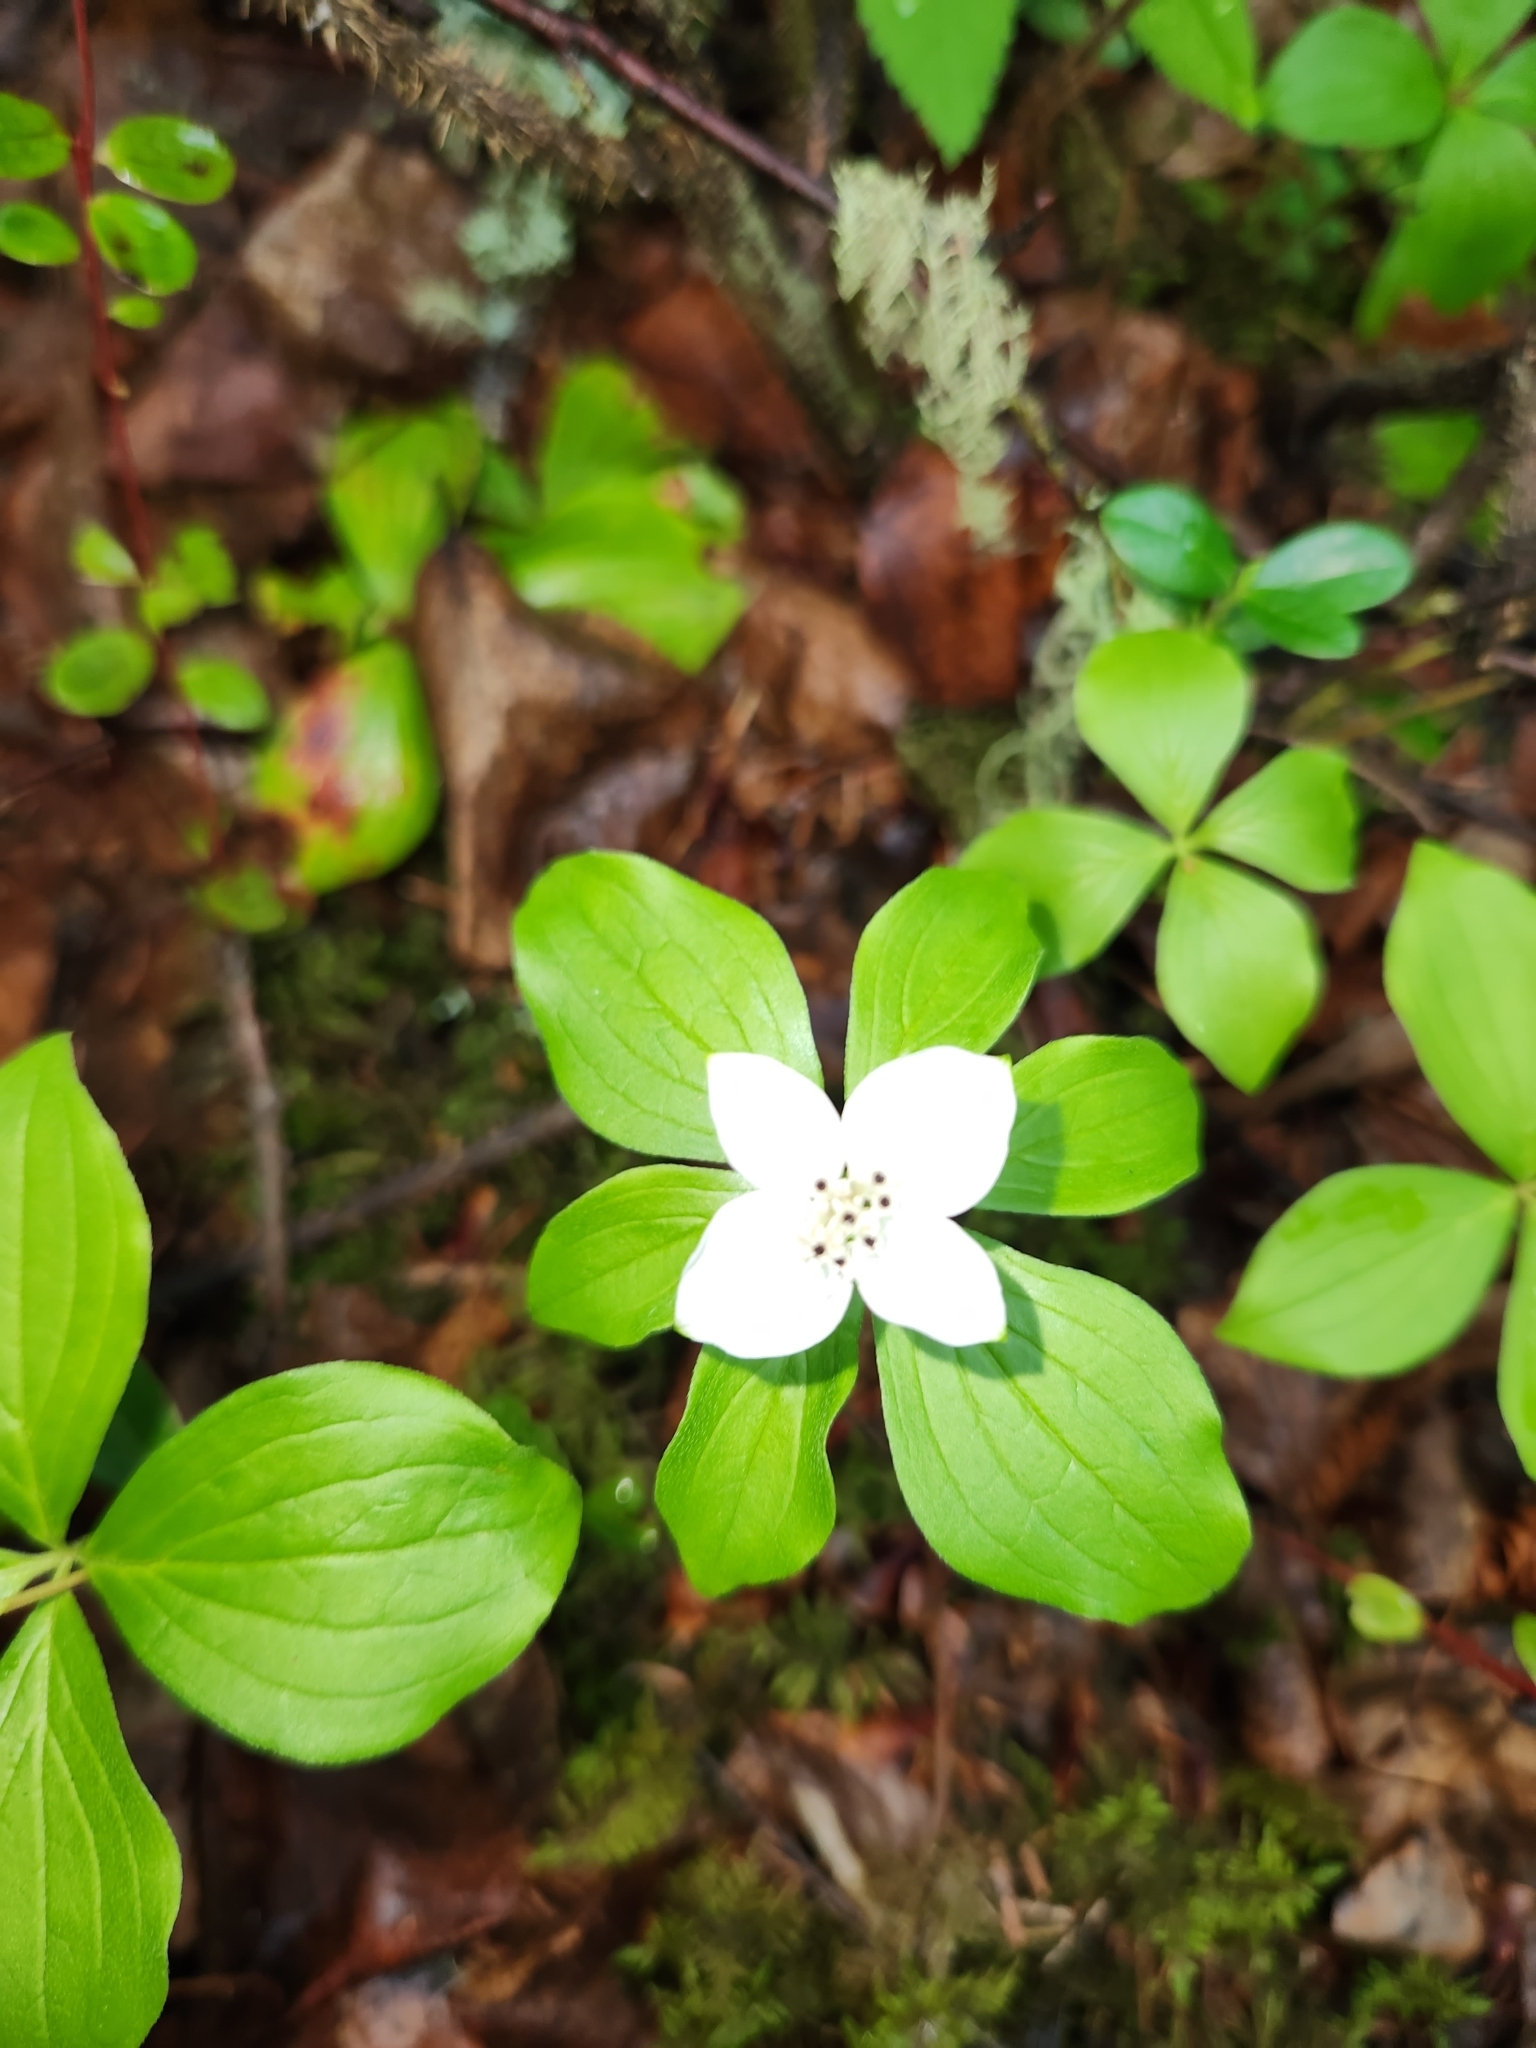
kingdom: Plantae
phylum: Tracheophyta
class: Magnoliopsida
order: Cornales
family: Cornaceae
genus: Cornus
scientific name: Cornus canadensis
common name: Creeping dogwood
